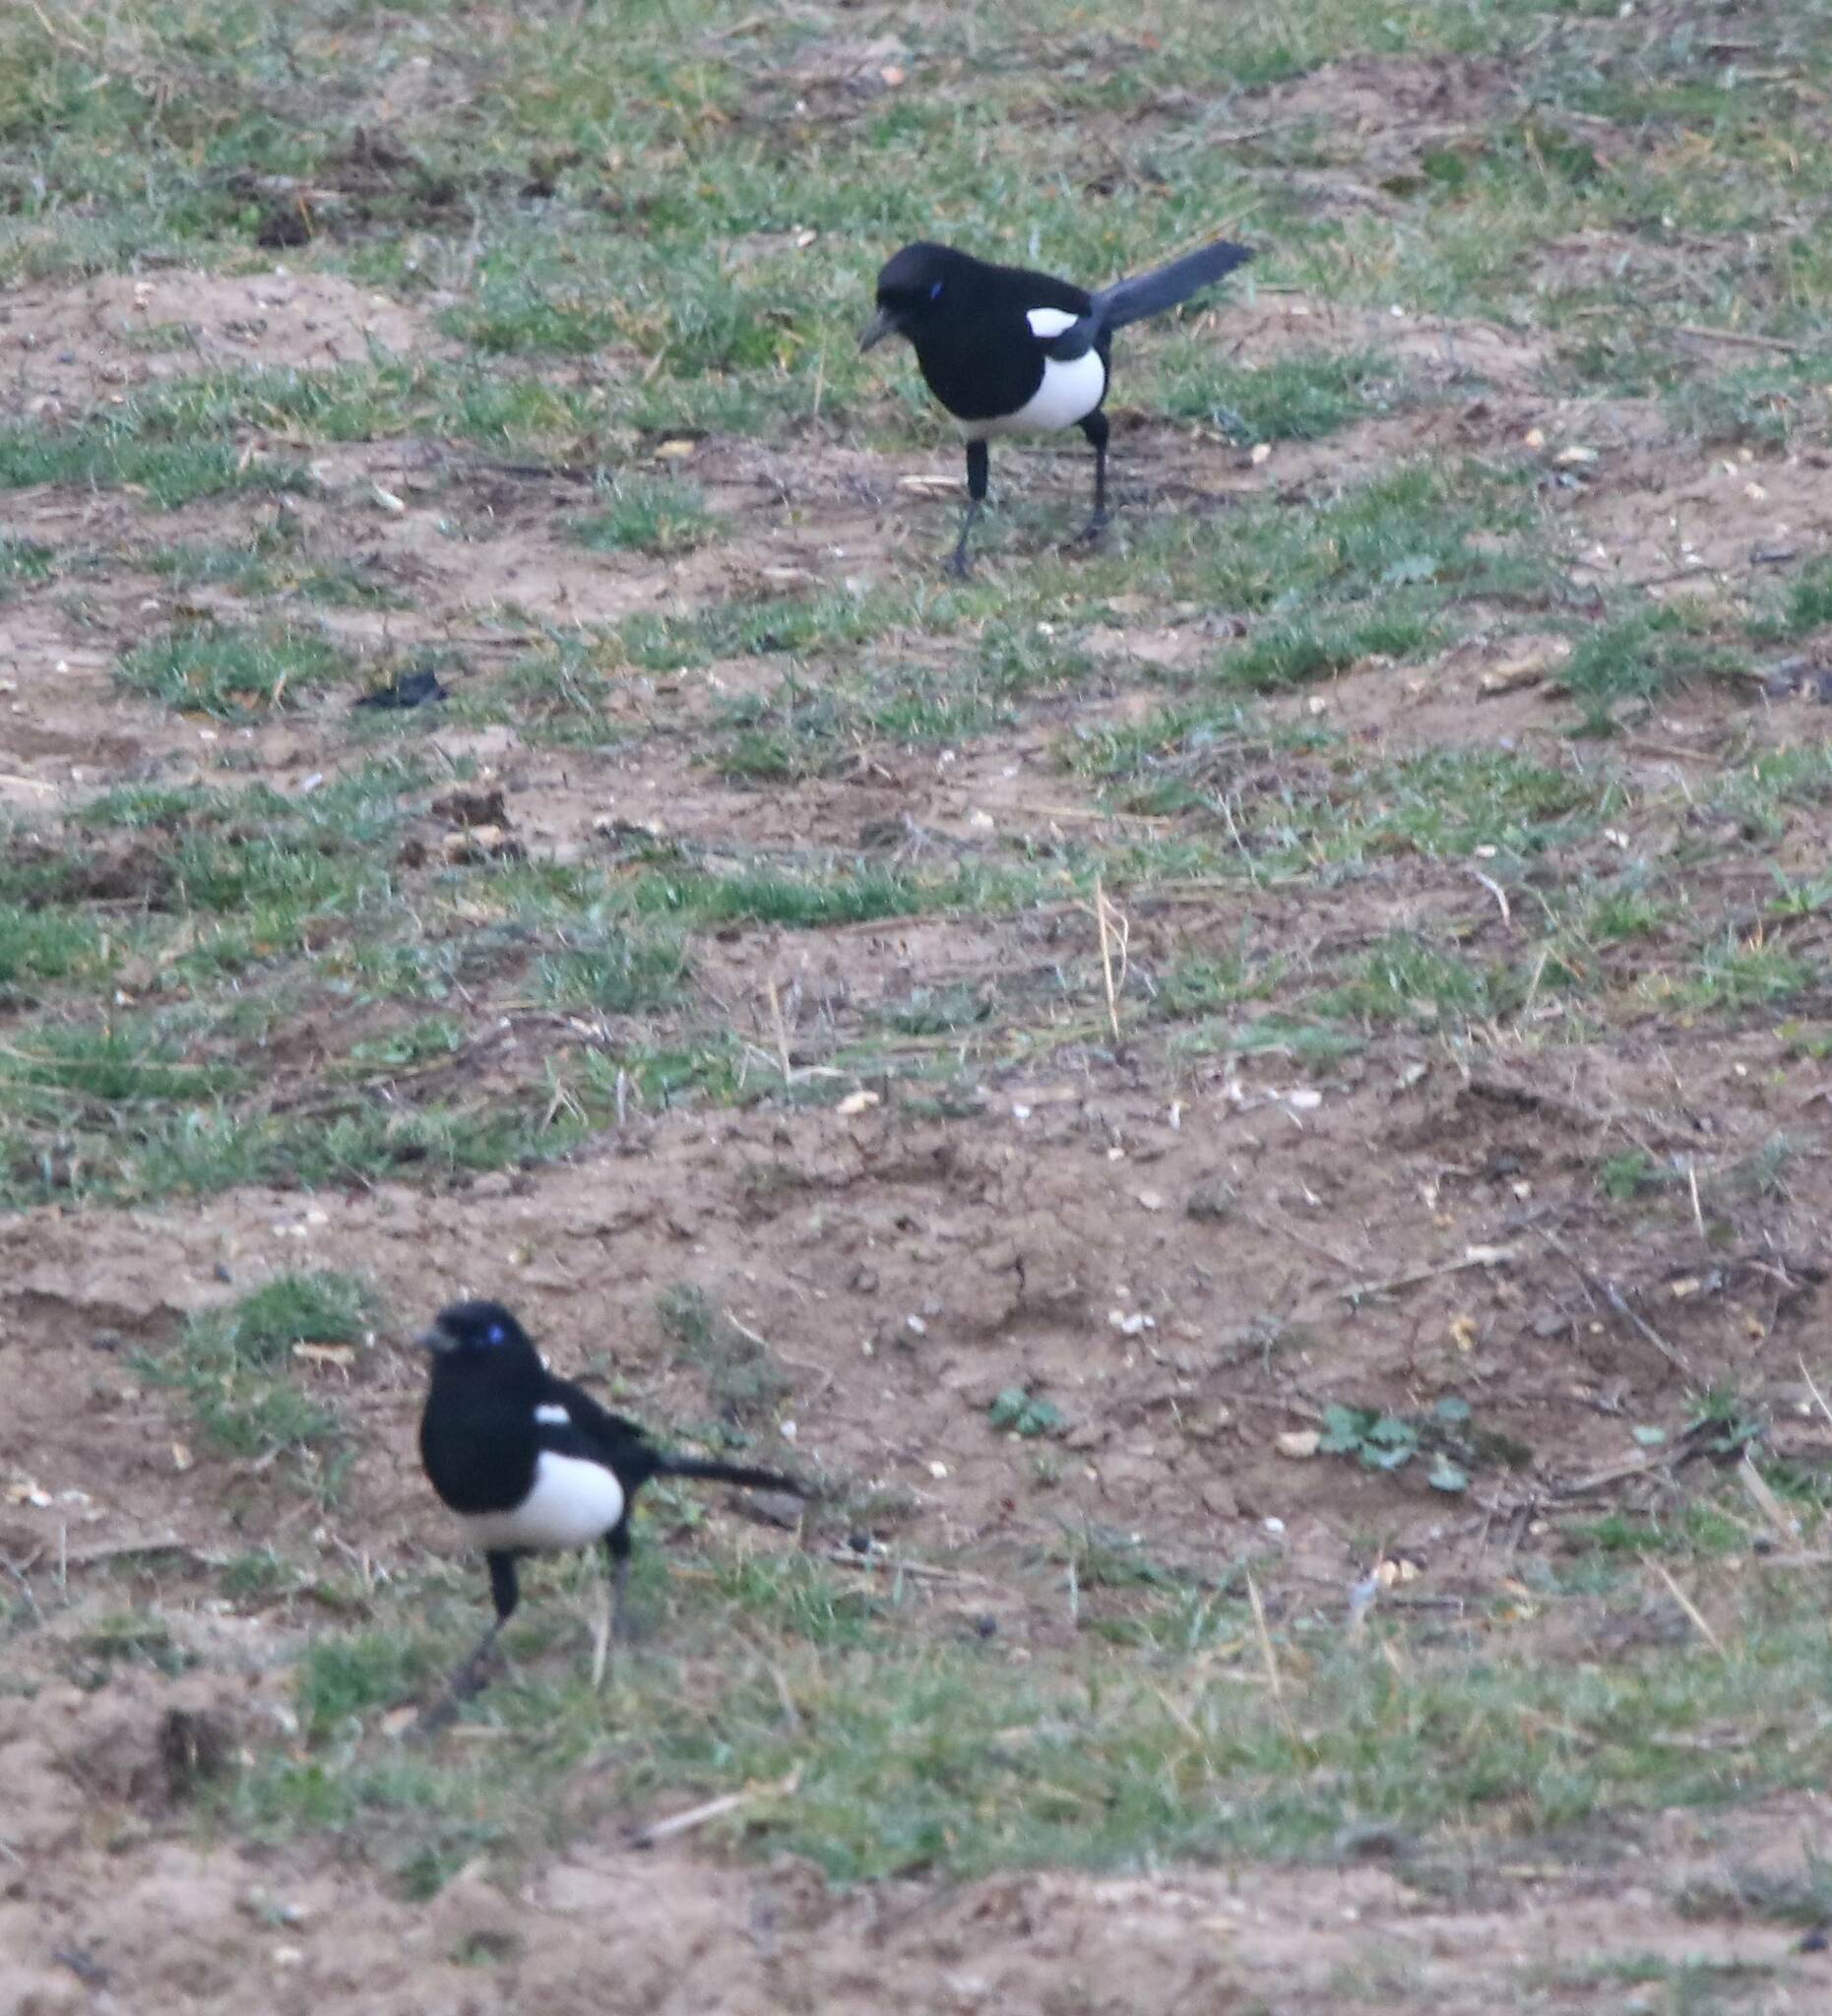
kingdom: Animalia
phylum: Chordata
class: Aves
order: Passeriformes
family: Corvidae
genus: Pica
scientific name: Pica mauritanica
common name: Maghreb magpie
